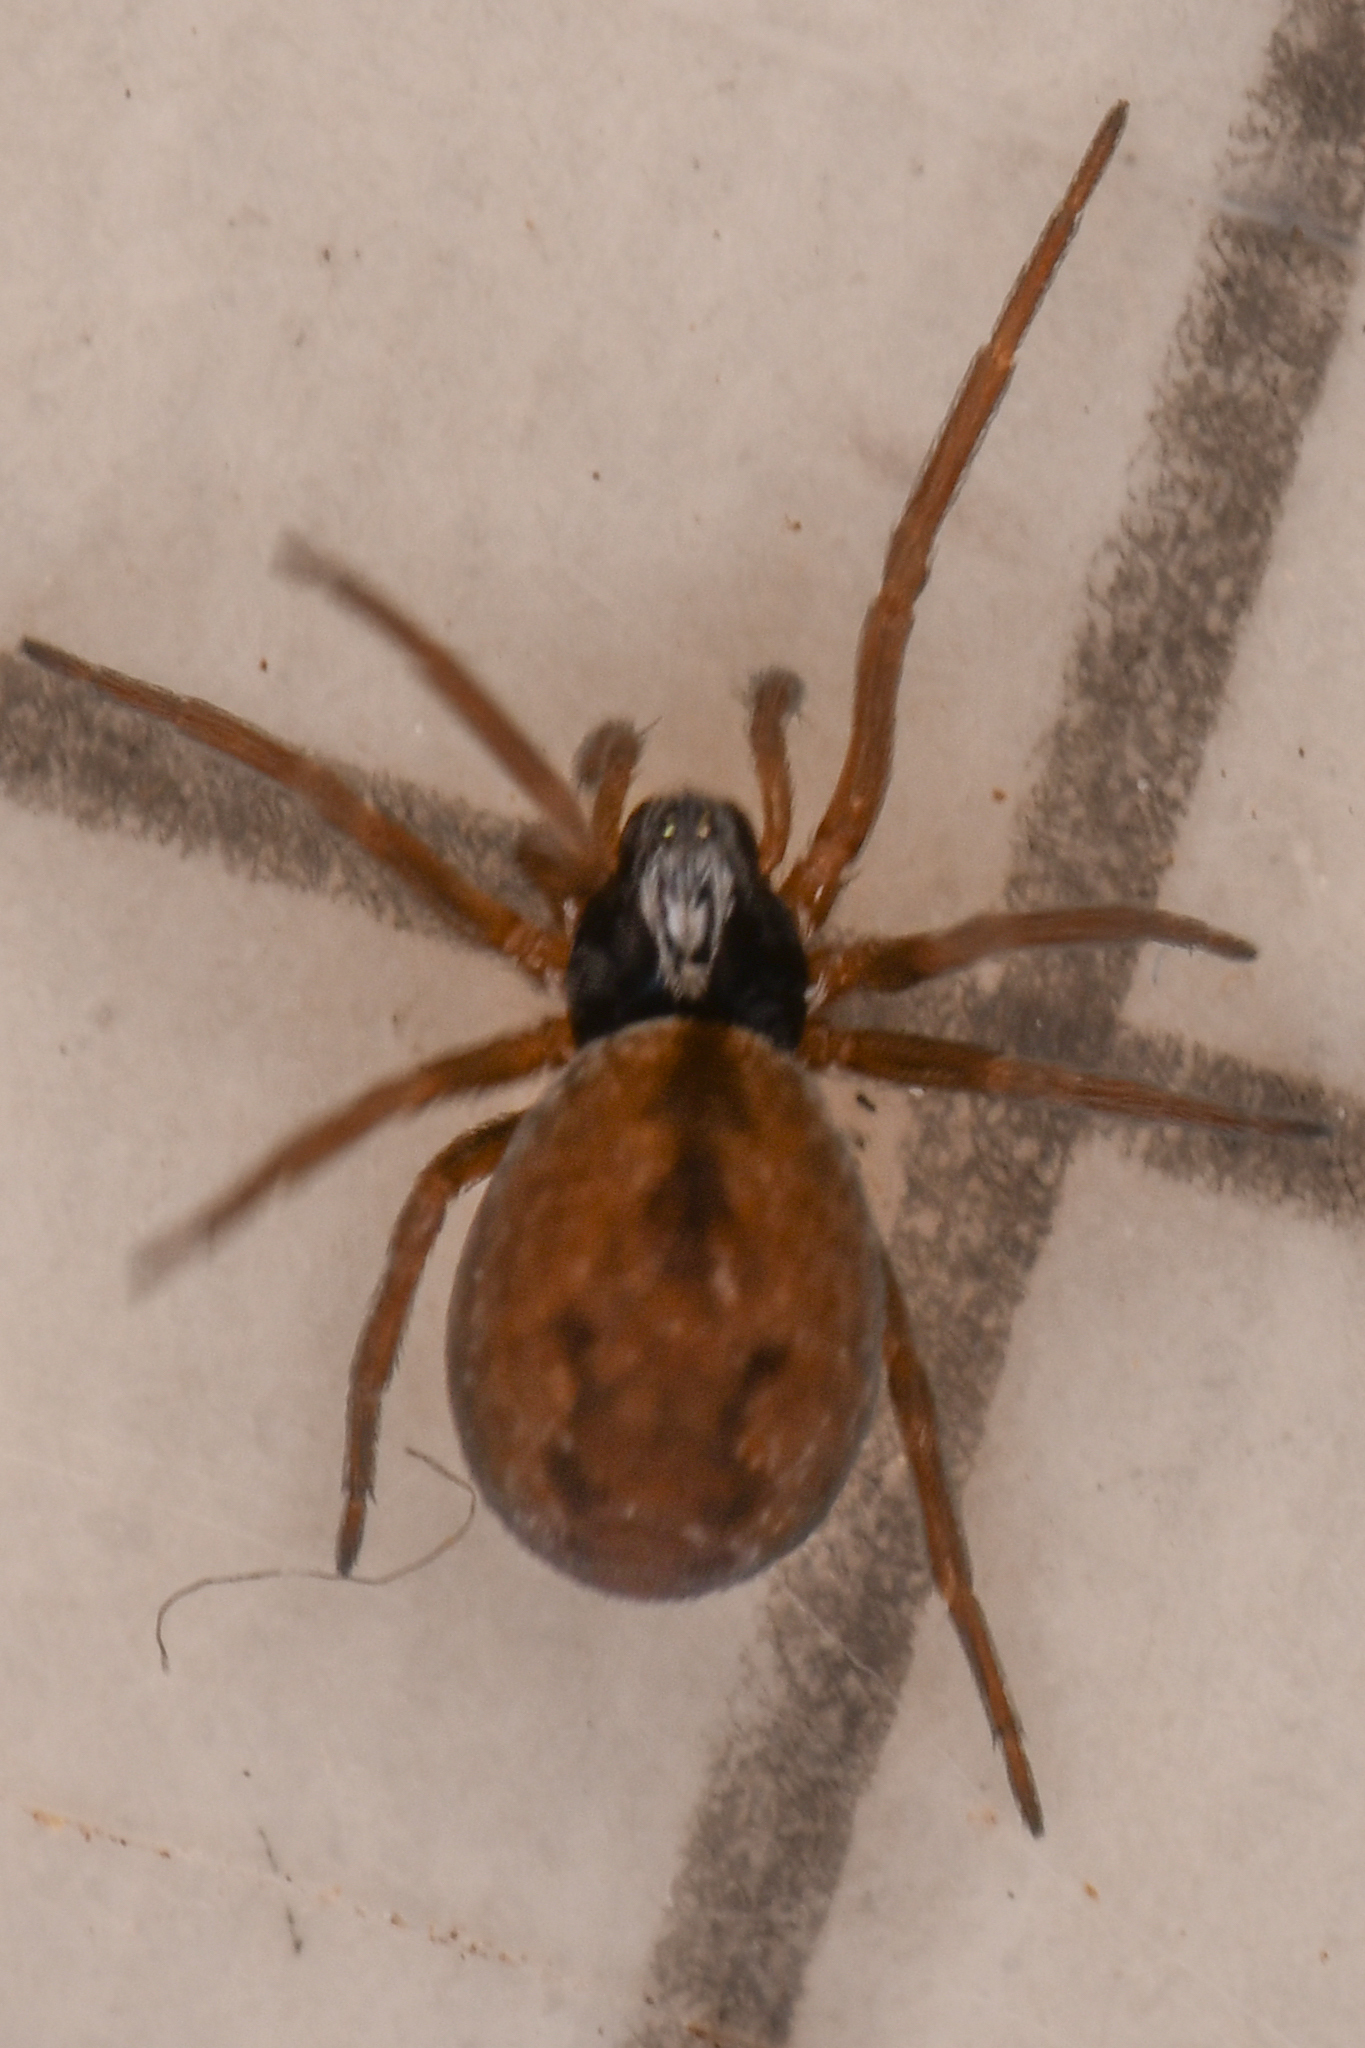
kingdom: Animalia
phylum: Arthropoda
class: Arachnida
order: Araneae
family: Dictynidae
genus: Emblyna
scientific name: Emblyna borealis
